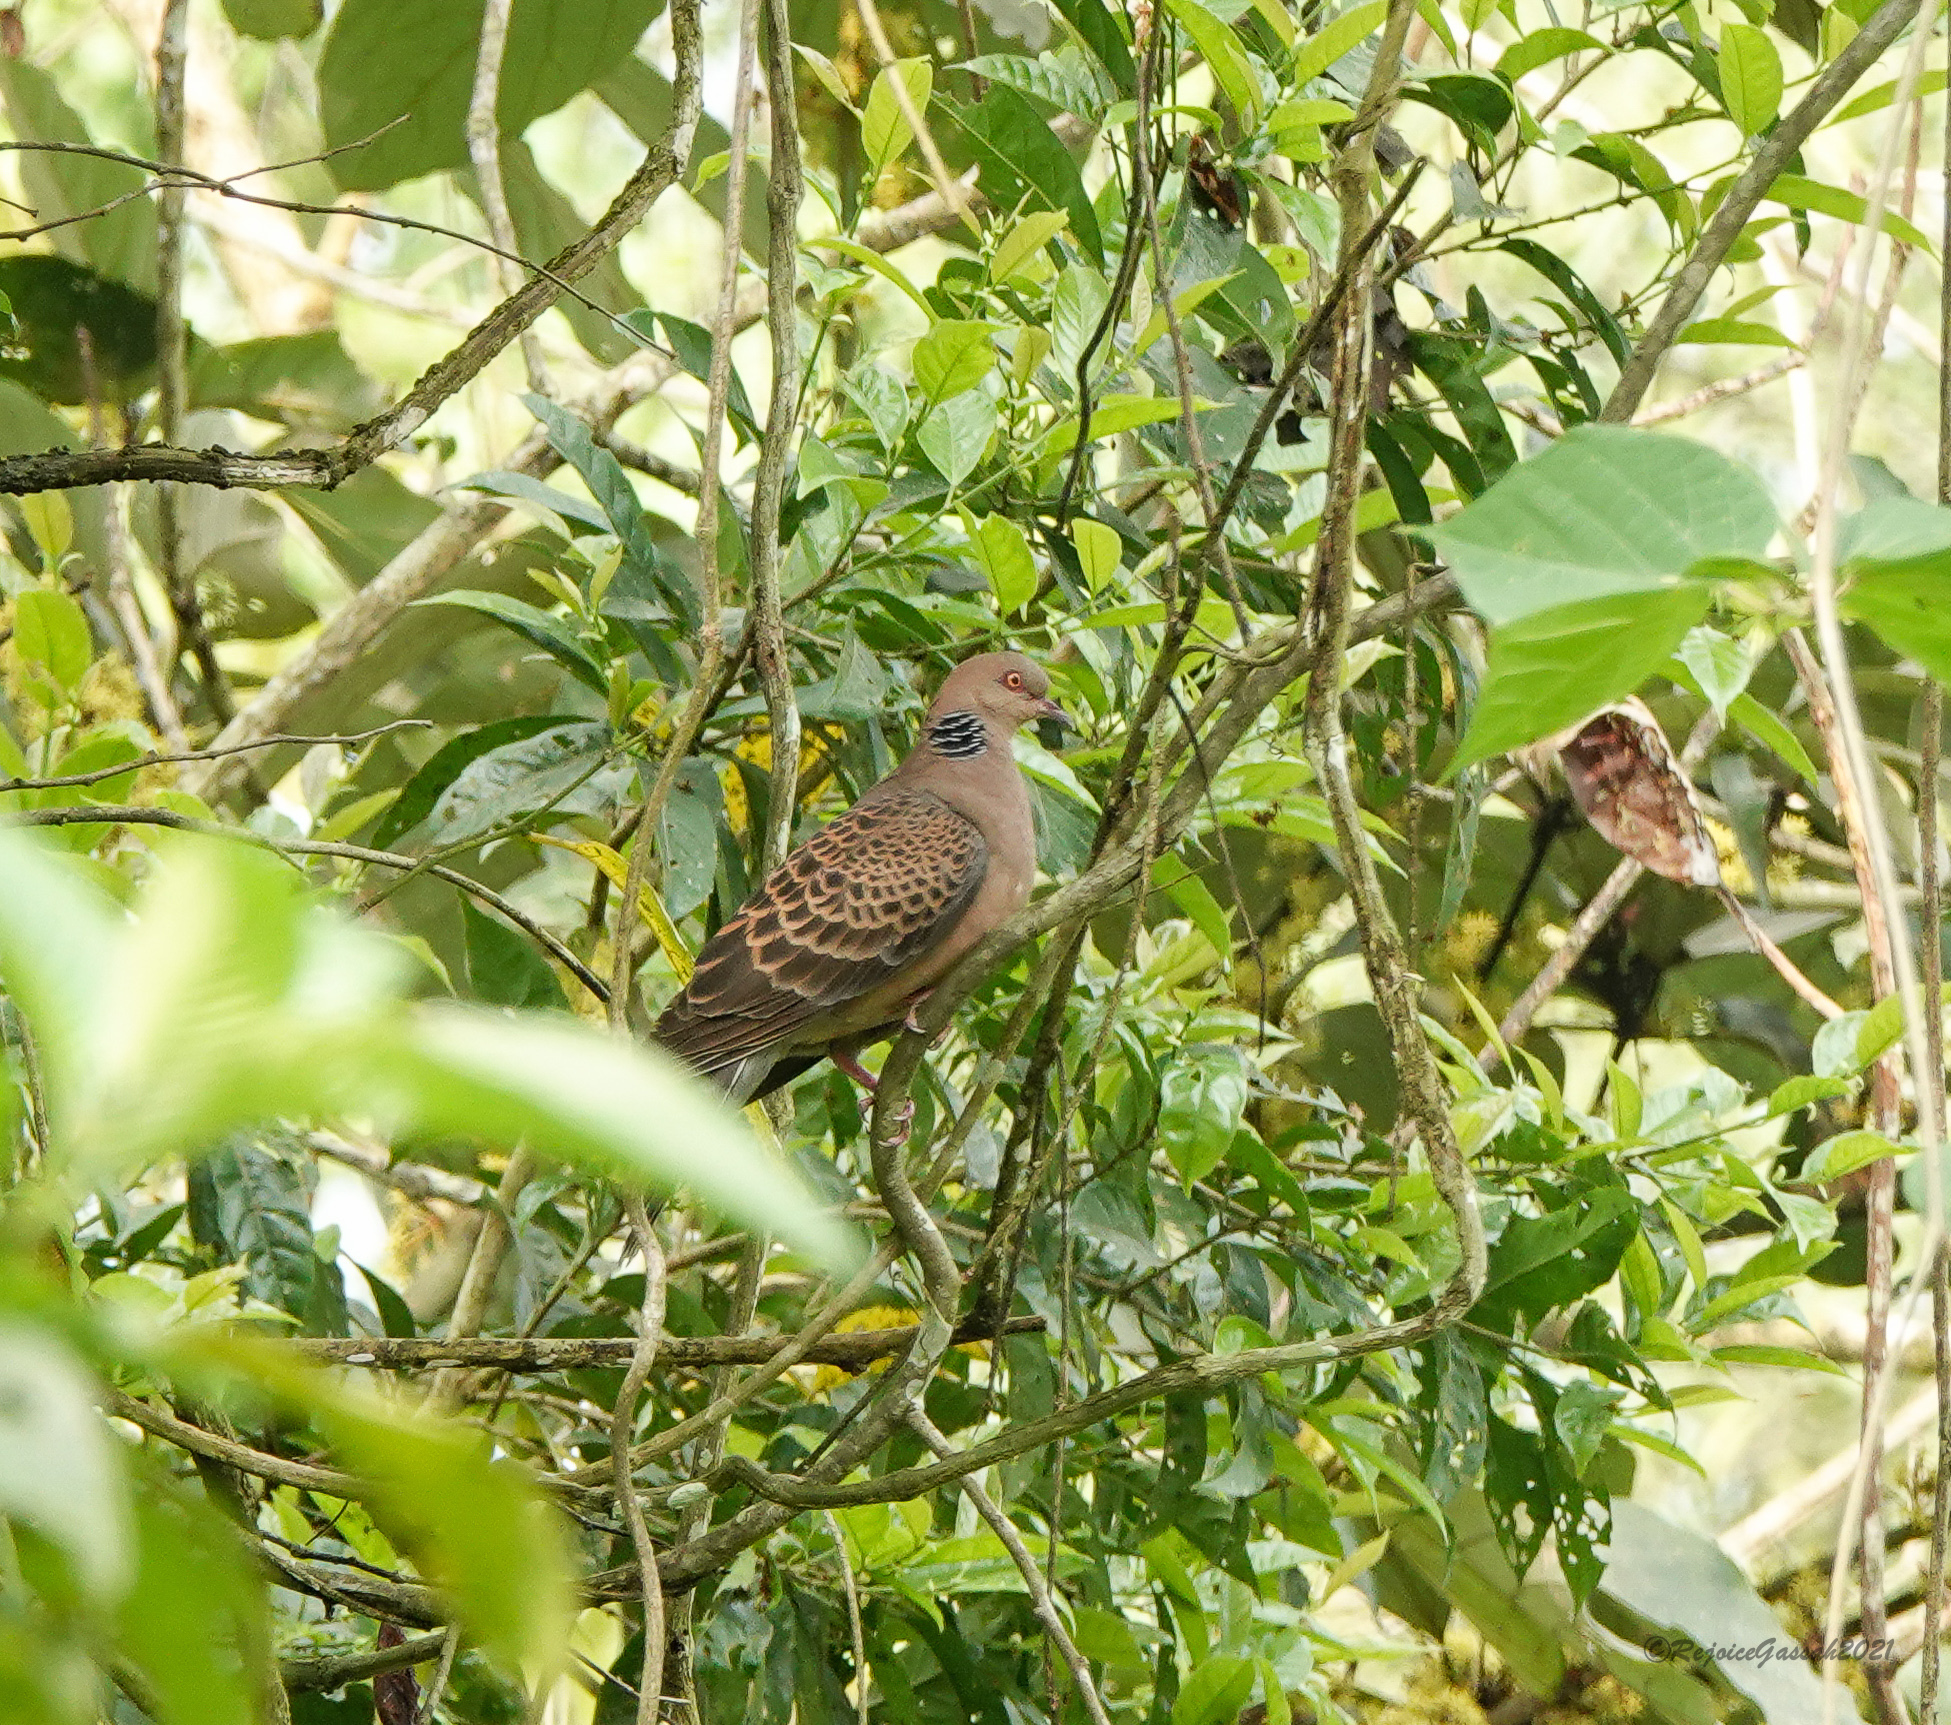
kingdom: Animalia
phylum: Chordata
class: Aves
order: Columbiformes
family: Columbidae
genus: Streptopelia
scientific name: Streptopelia orientalis
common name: Oriental turtle dove
